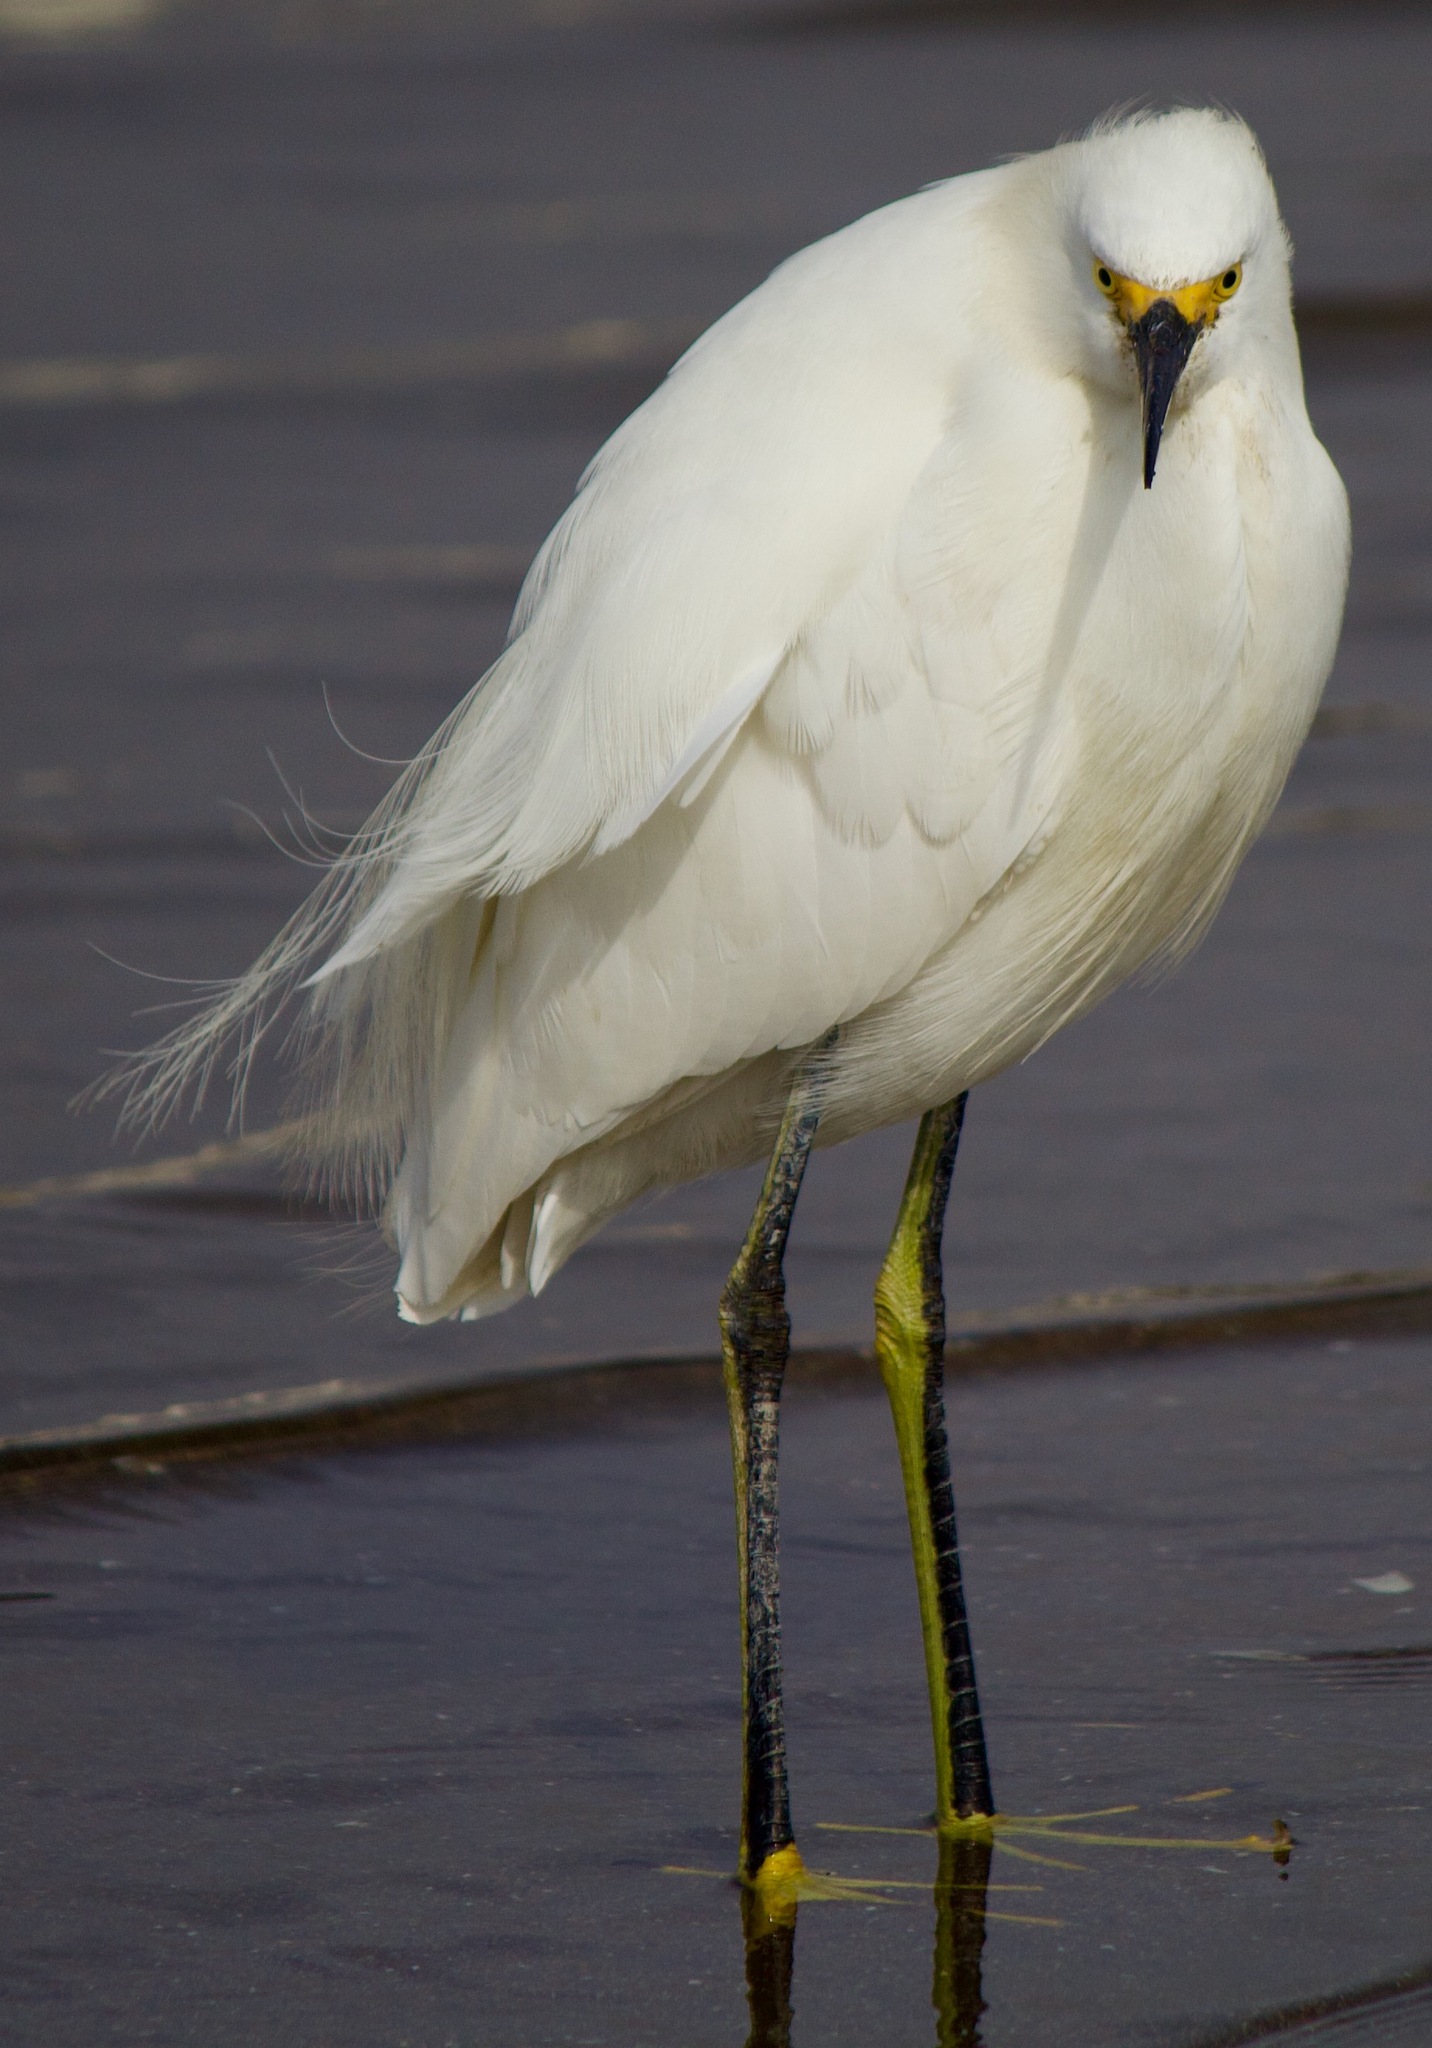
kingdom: Animalia
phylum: Chordata
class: Aves
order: Pelecaniformes
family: Ardeidae
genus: Egretta
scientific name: Egretta thula
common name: Snowy egret
